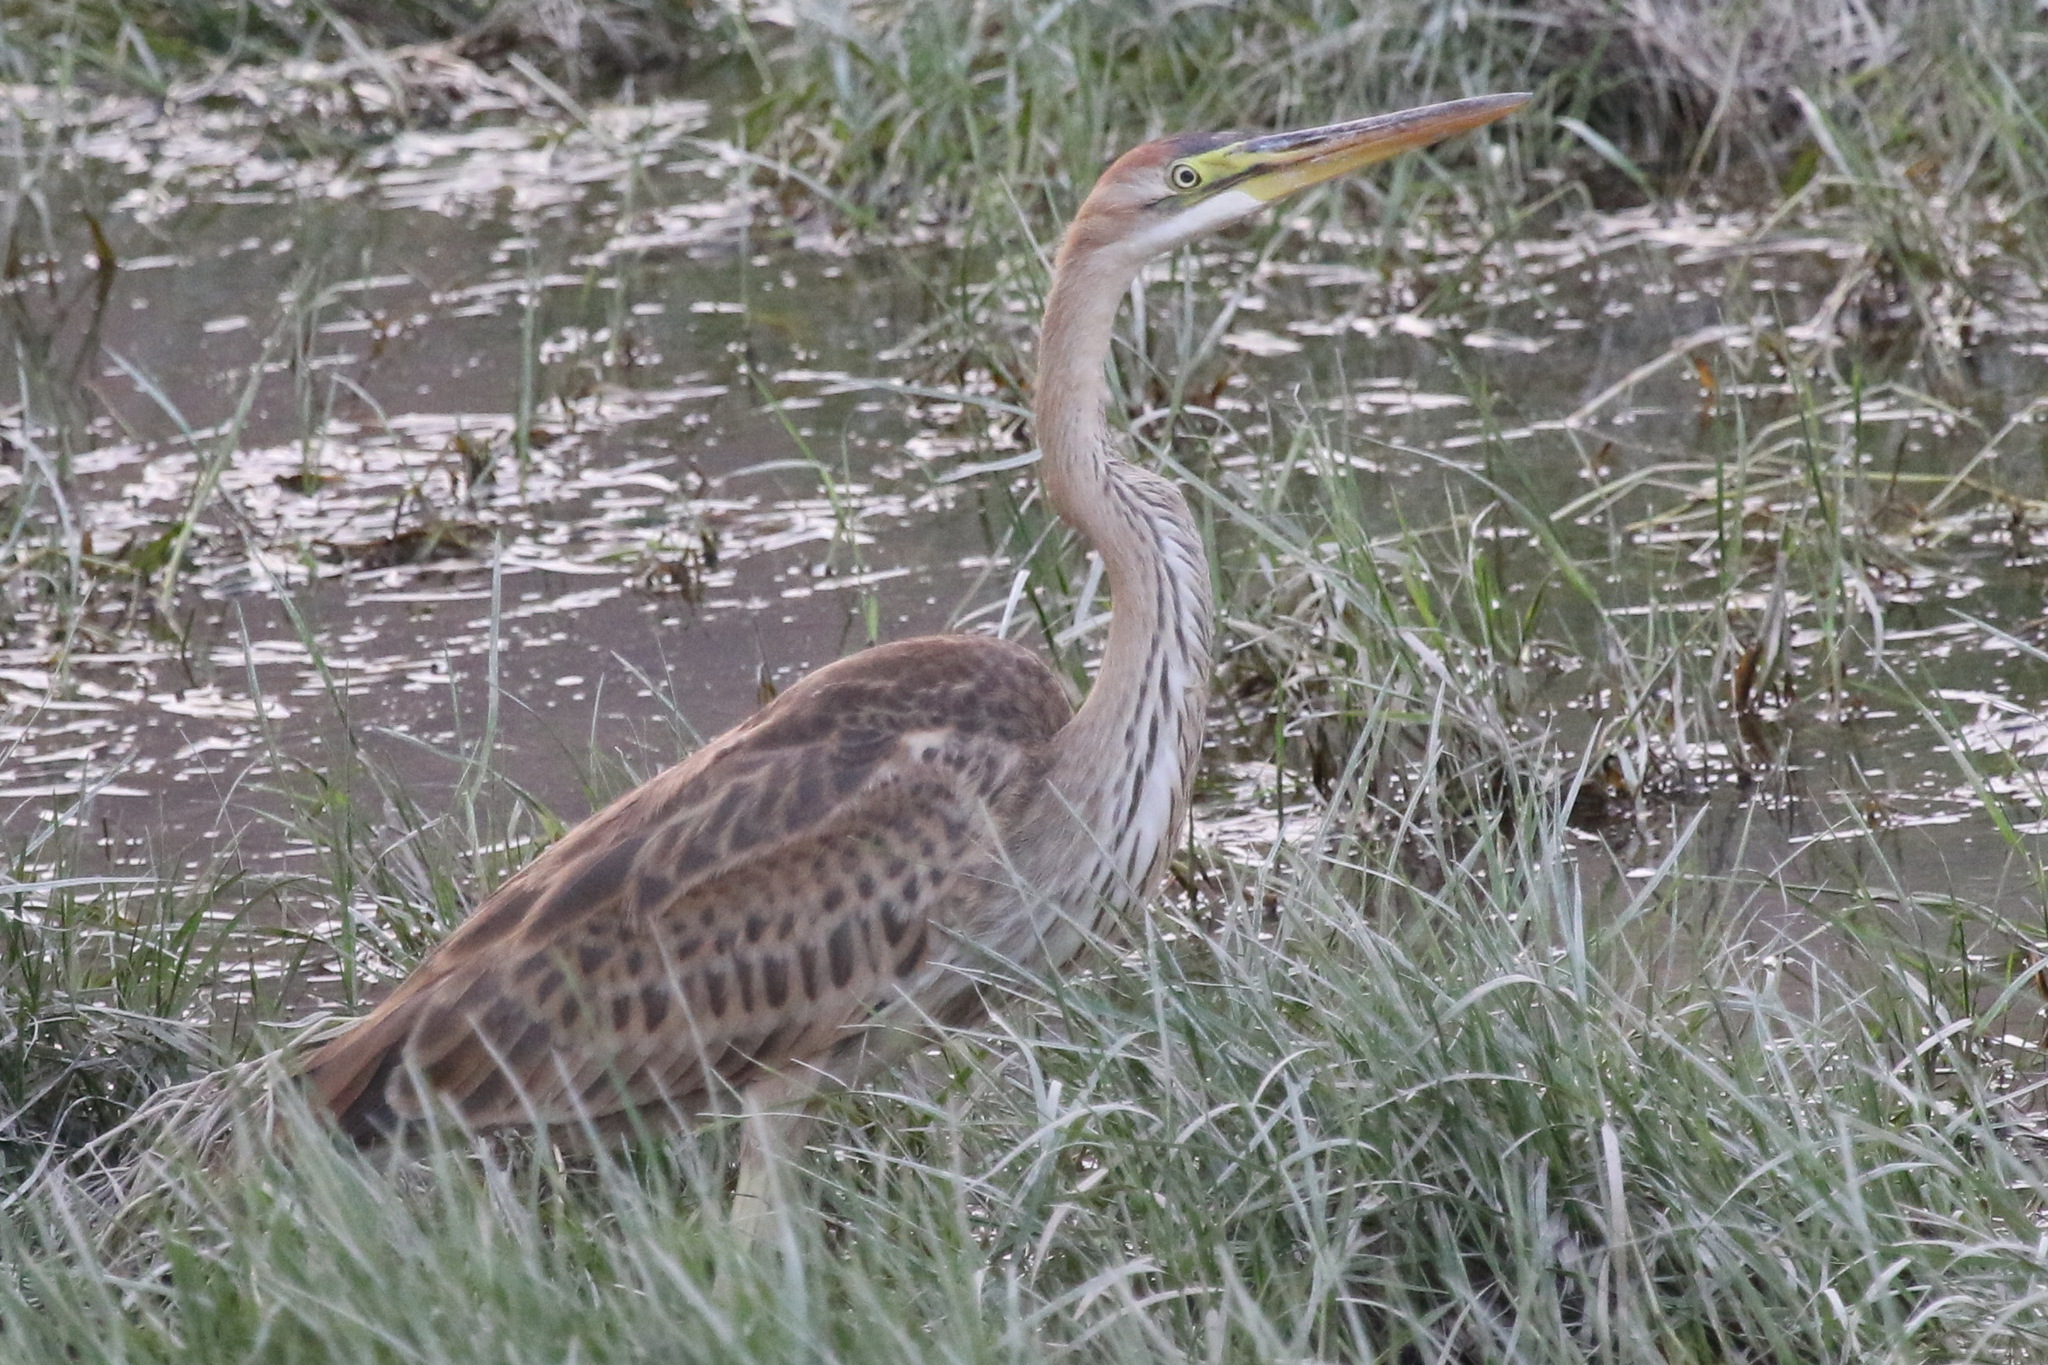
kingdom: Animalia
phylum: Chordata
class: Aves
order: Pelecaniformes
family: Ardeidae
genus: Ardea
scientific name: Ardea purpurea
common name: Purple heron
